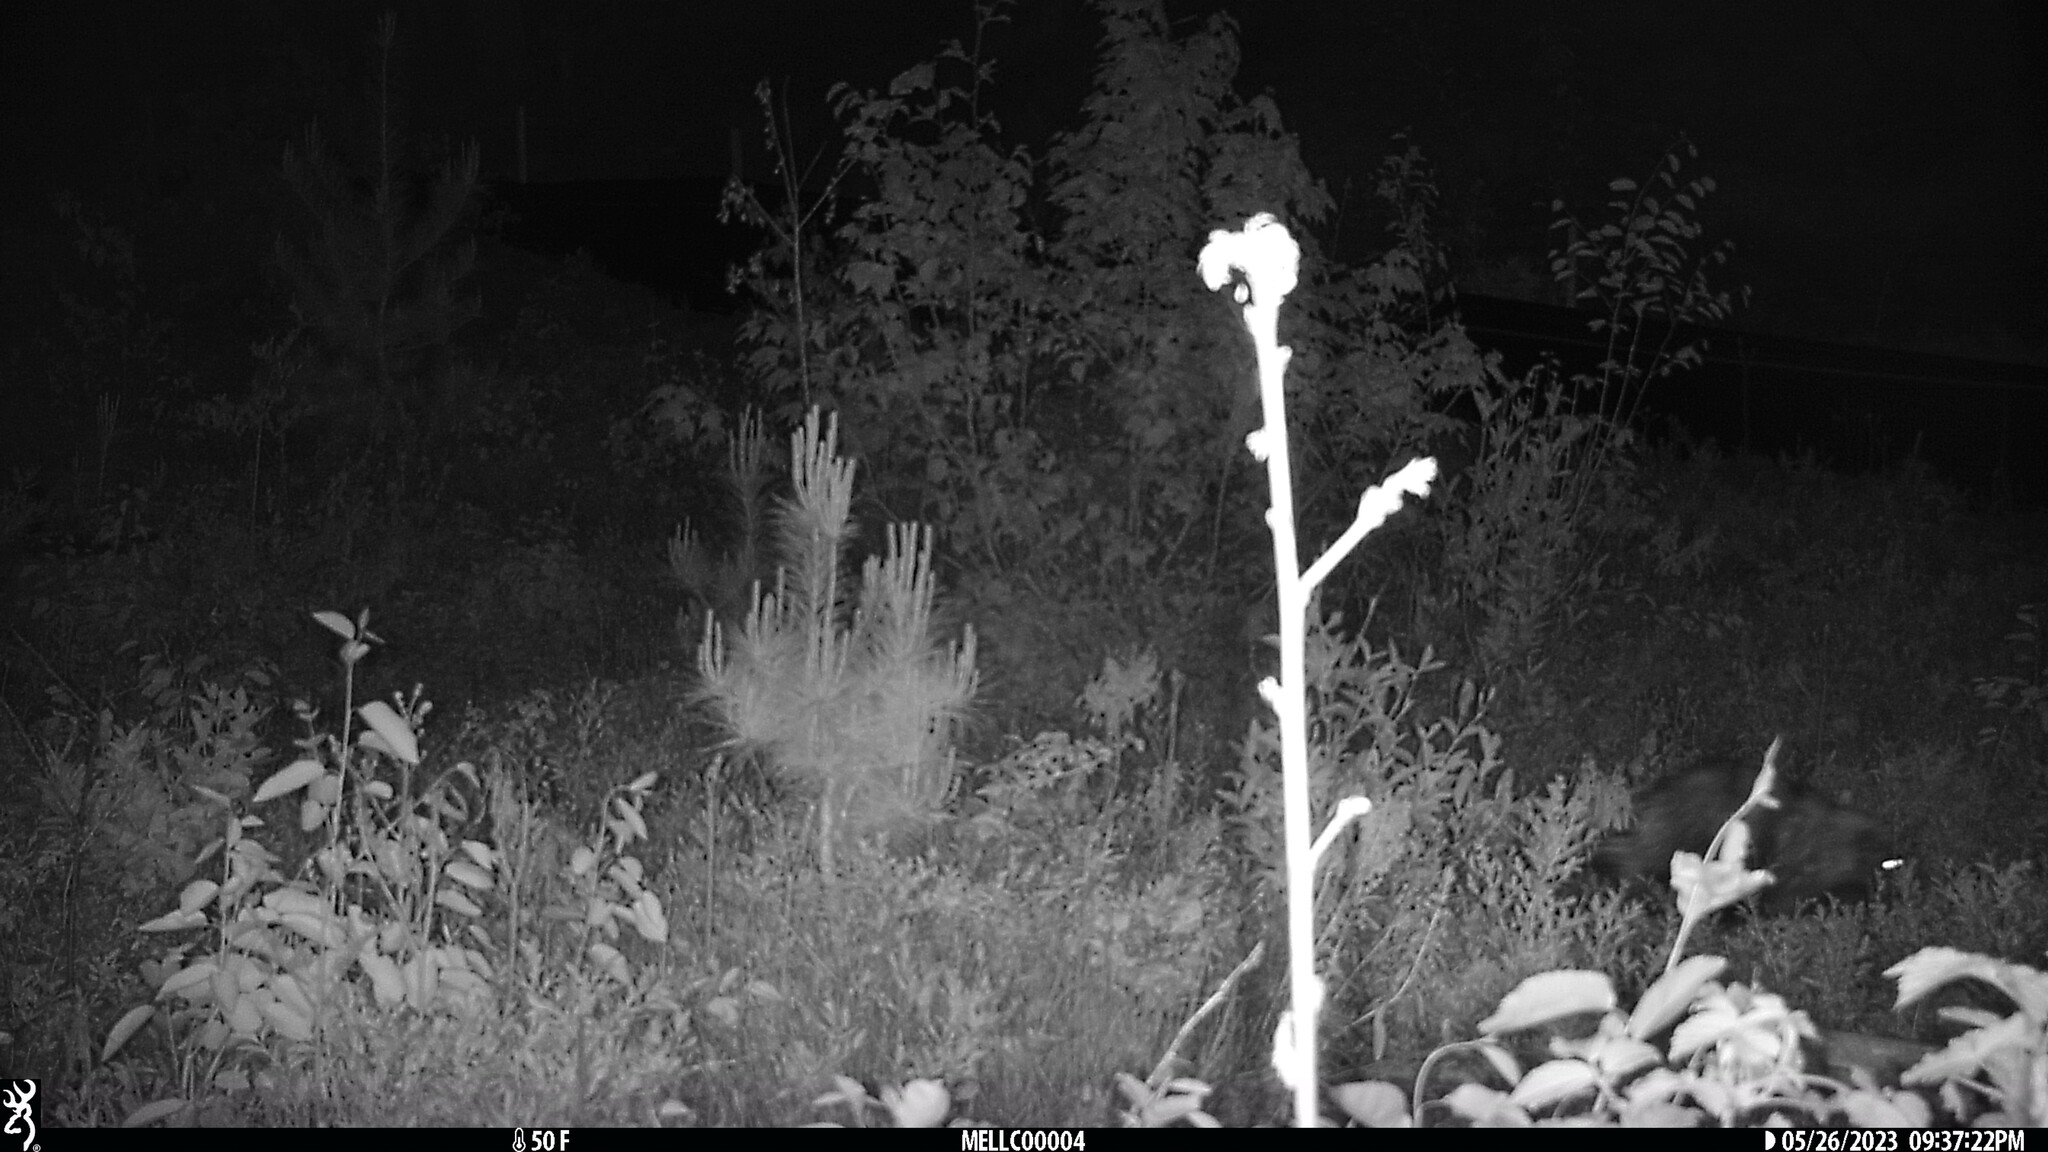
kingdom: Animalia
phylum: Chordata
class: Mammalia
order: Rodentia
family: Erethizontidae
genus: Erethizon
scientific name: Erethizon dorsatus
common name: North american porcupine
